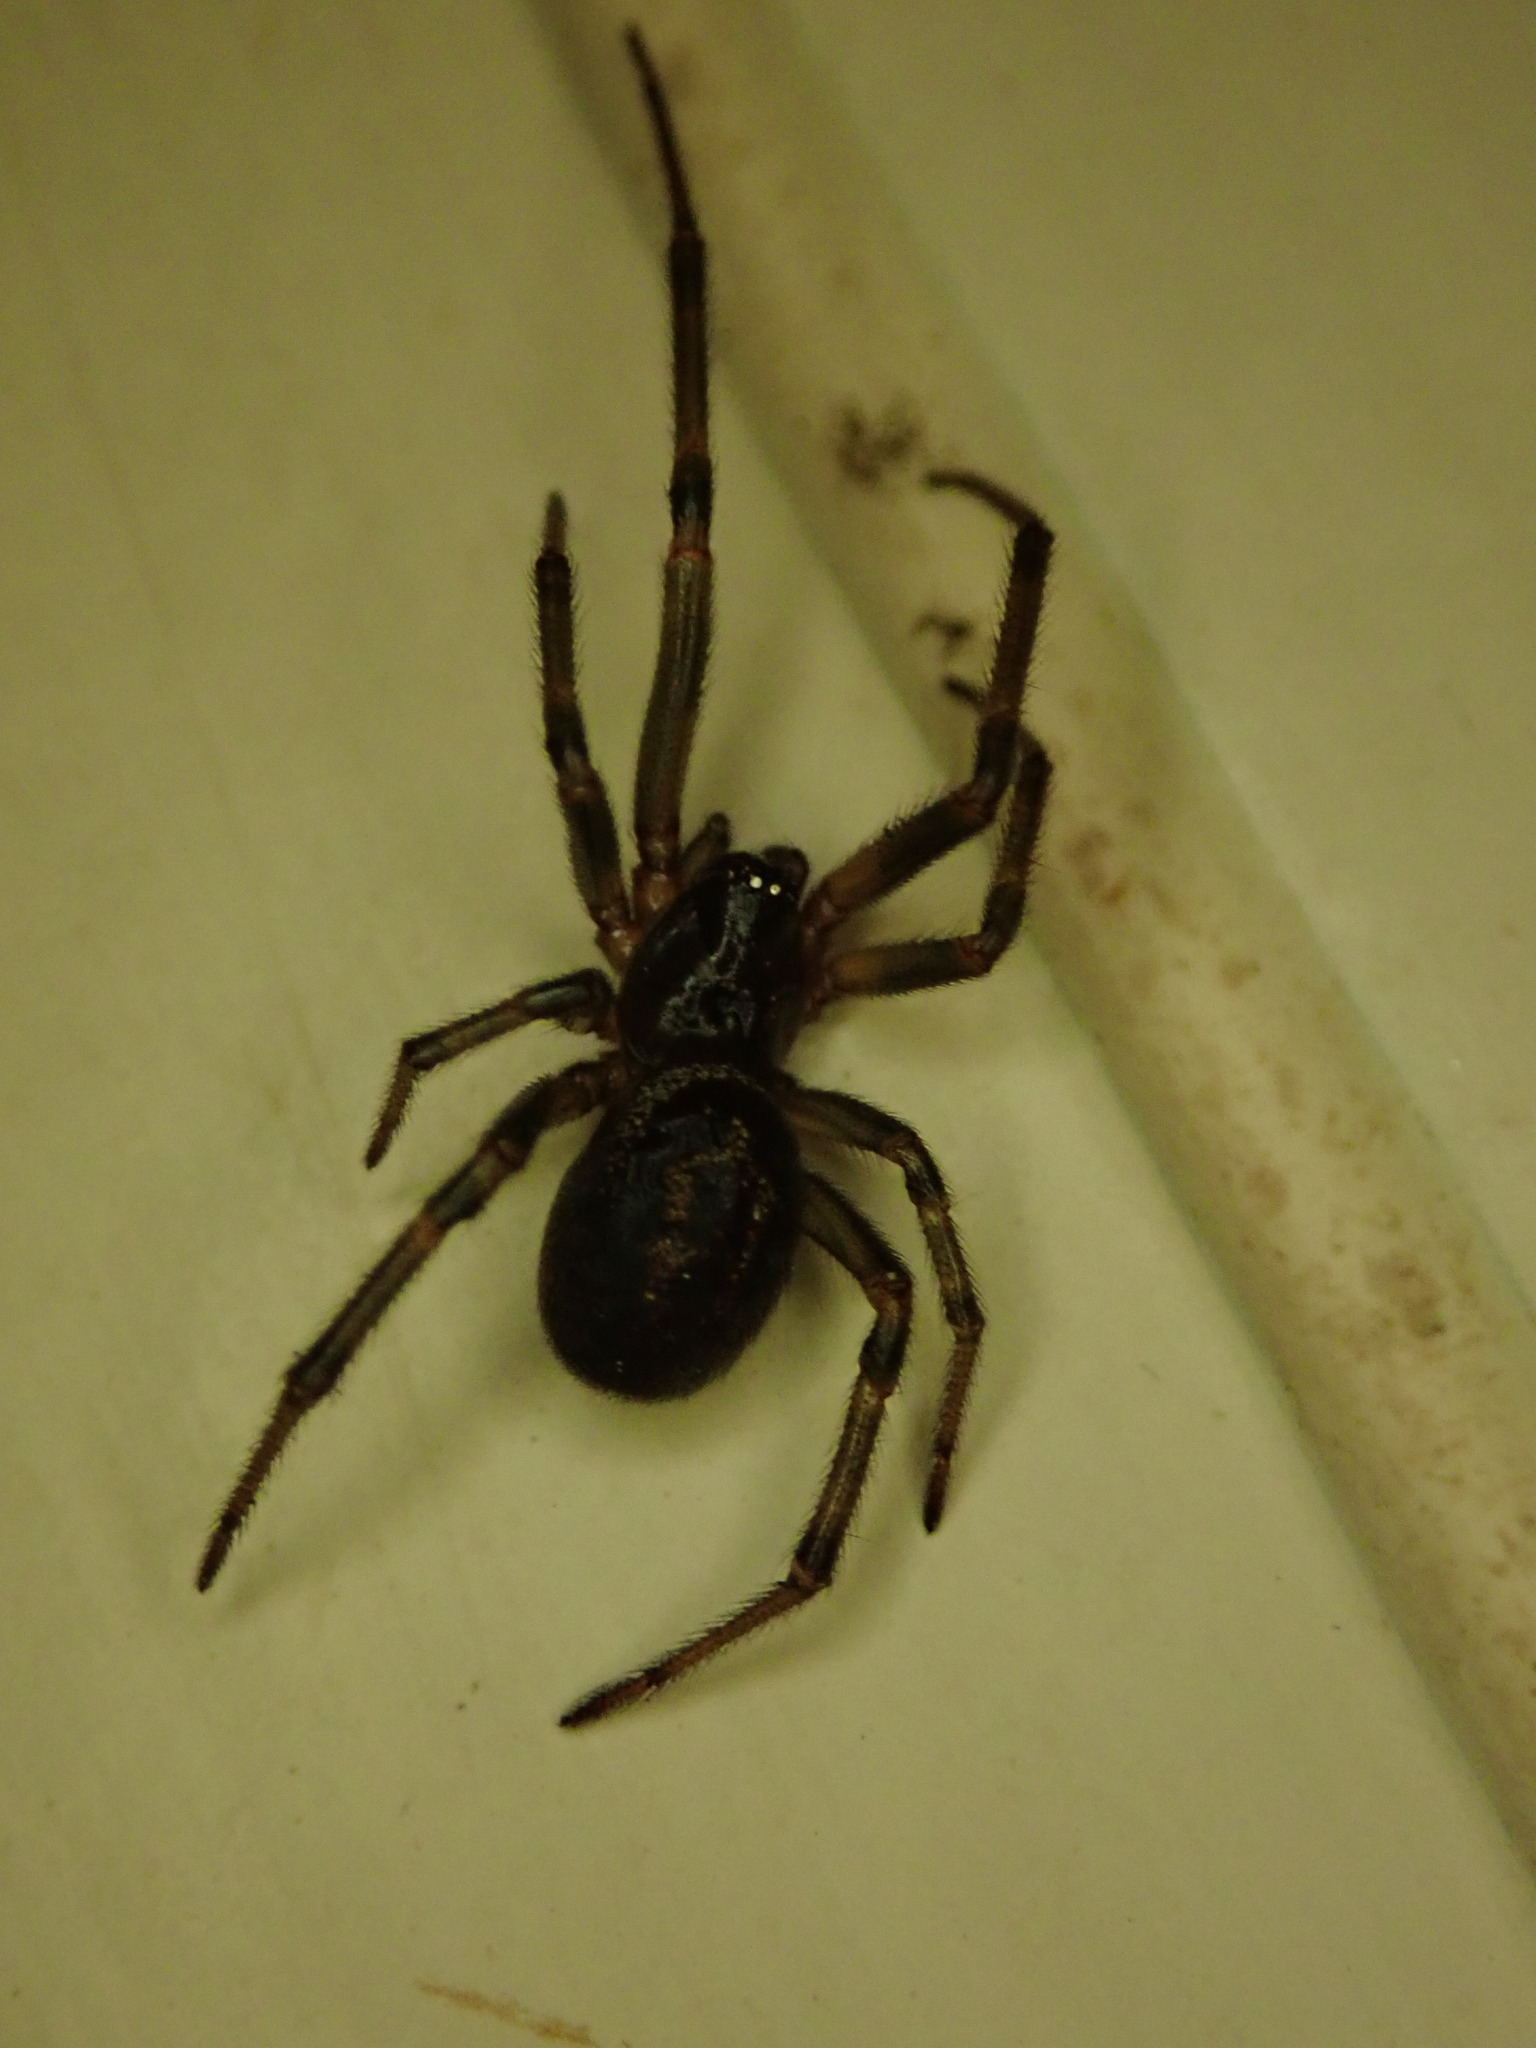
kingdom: Animalia
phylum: Arthropoda
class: Arachnida
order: Araneae
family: Theridiidae
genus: Steatoda
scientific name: Steatoda nobilis
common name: Cobweb weaver
